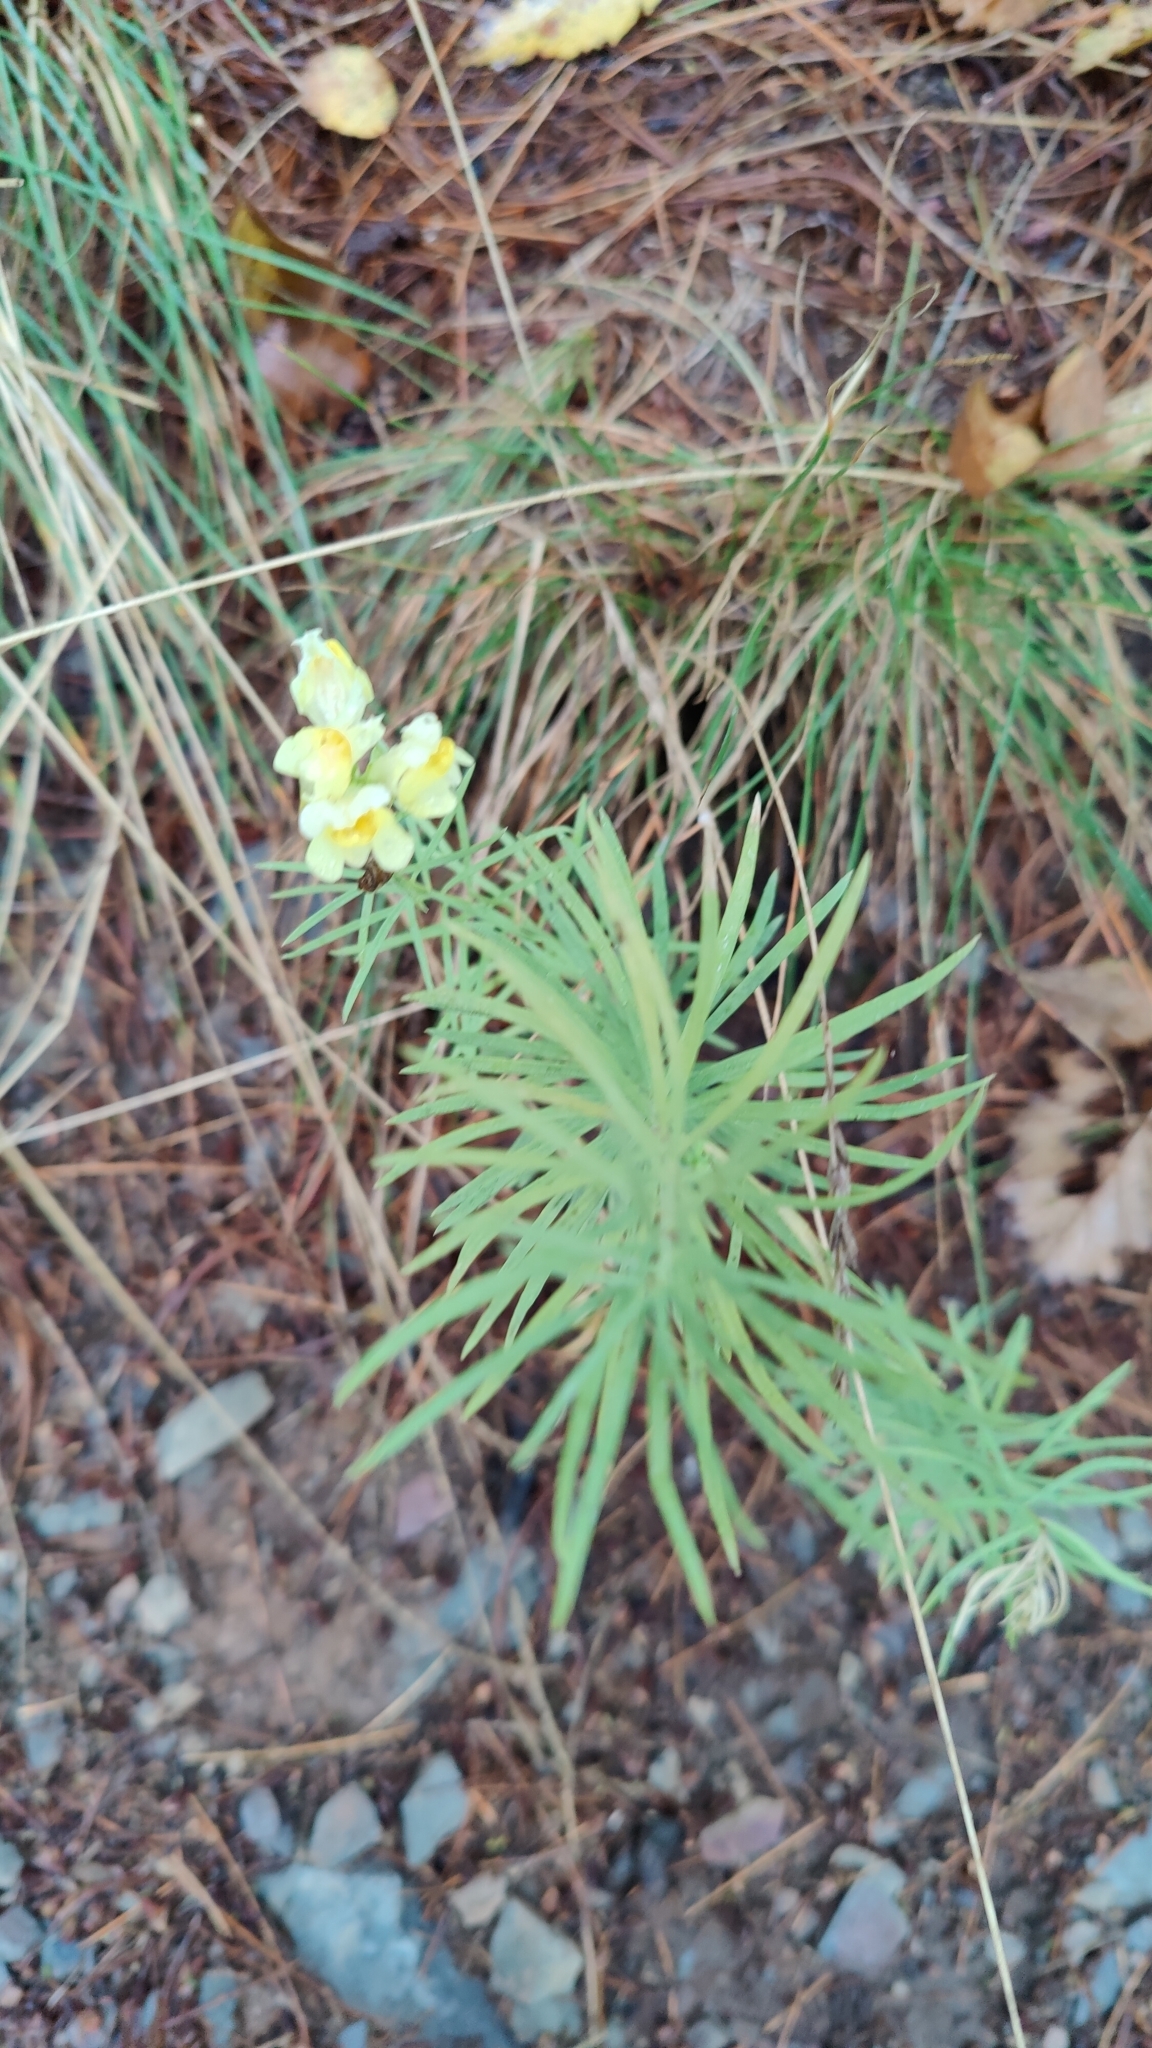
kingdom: Plantae
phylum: Tracheophyta
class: Magnoliopsida
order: Lamiales
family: Plantaginaceae
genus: Linaria
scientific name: Linaria vulgaris
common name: Butter and eggs
